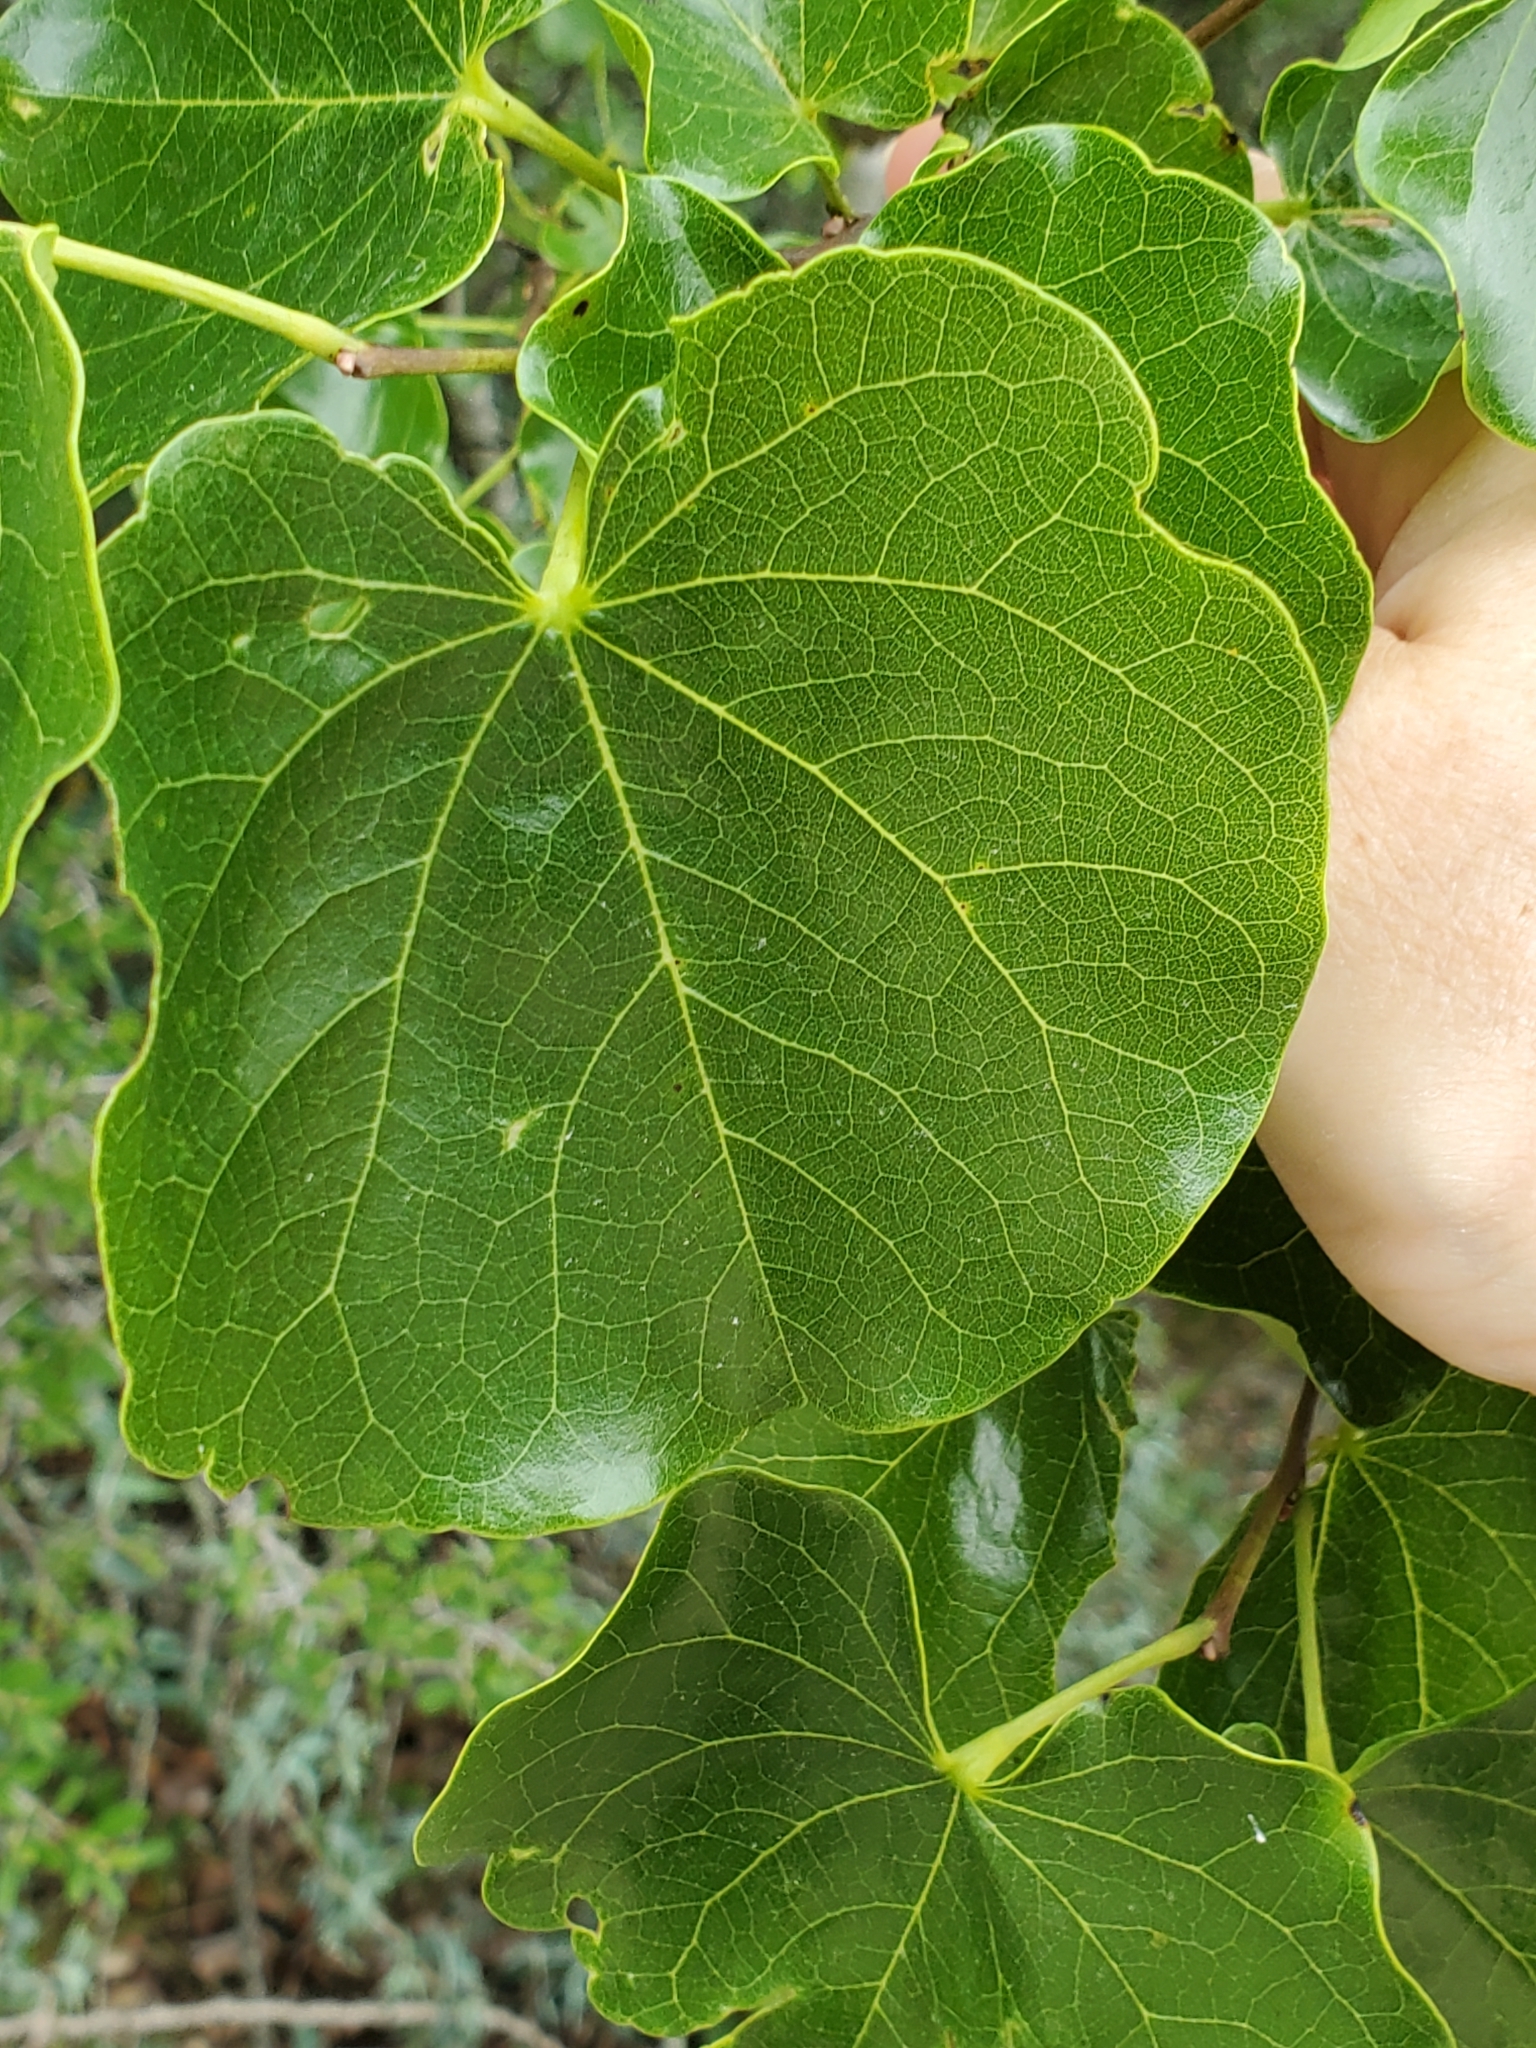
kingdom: Plantae
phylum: Tracheophyta
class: Magnoliopsida
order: Fabales
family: Fabaceae
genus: Cercis
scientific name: Cercis canadensis
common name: Eastern redbud
